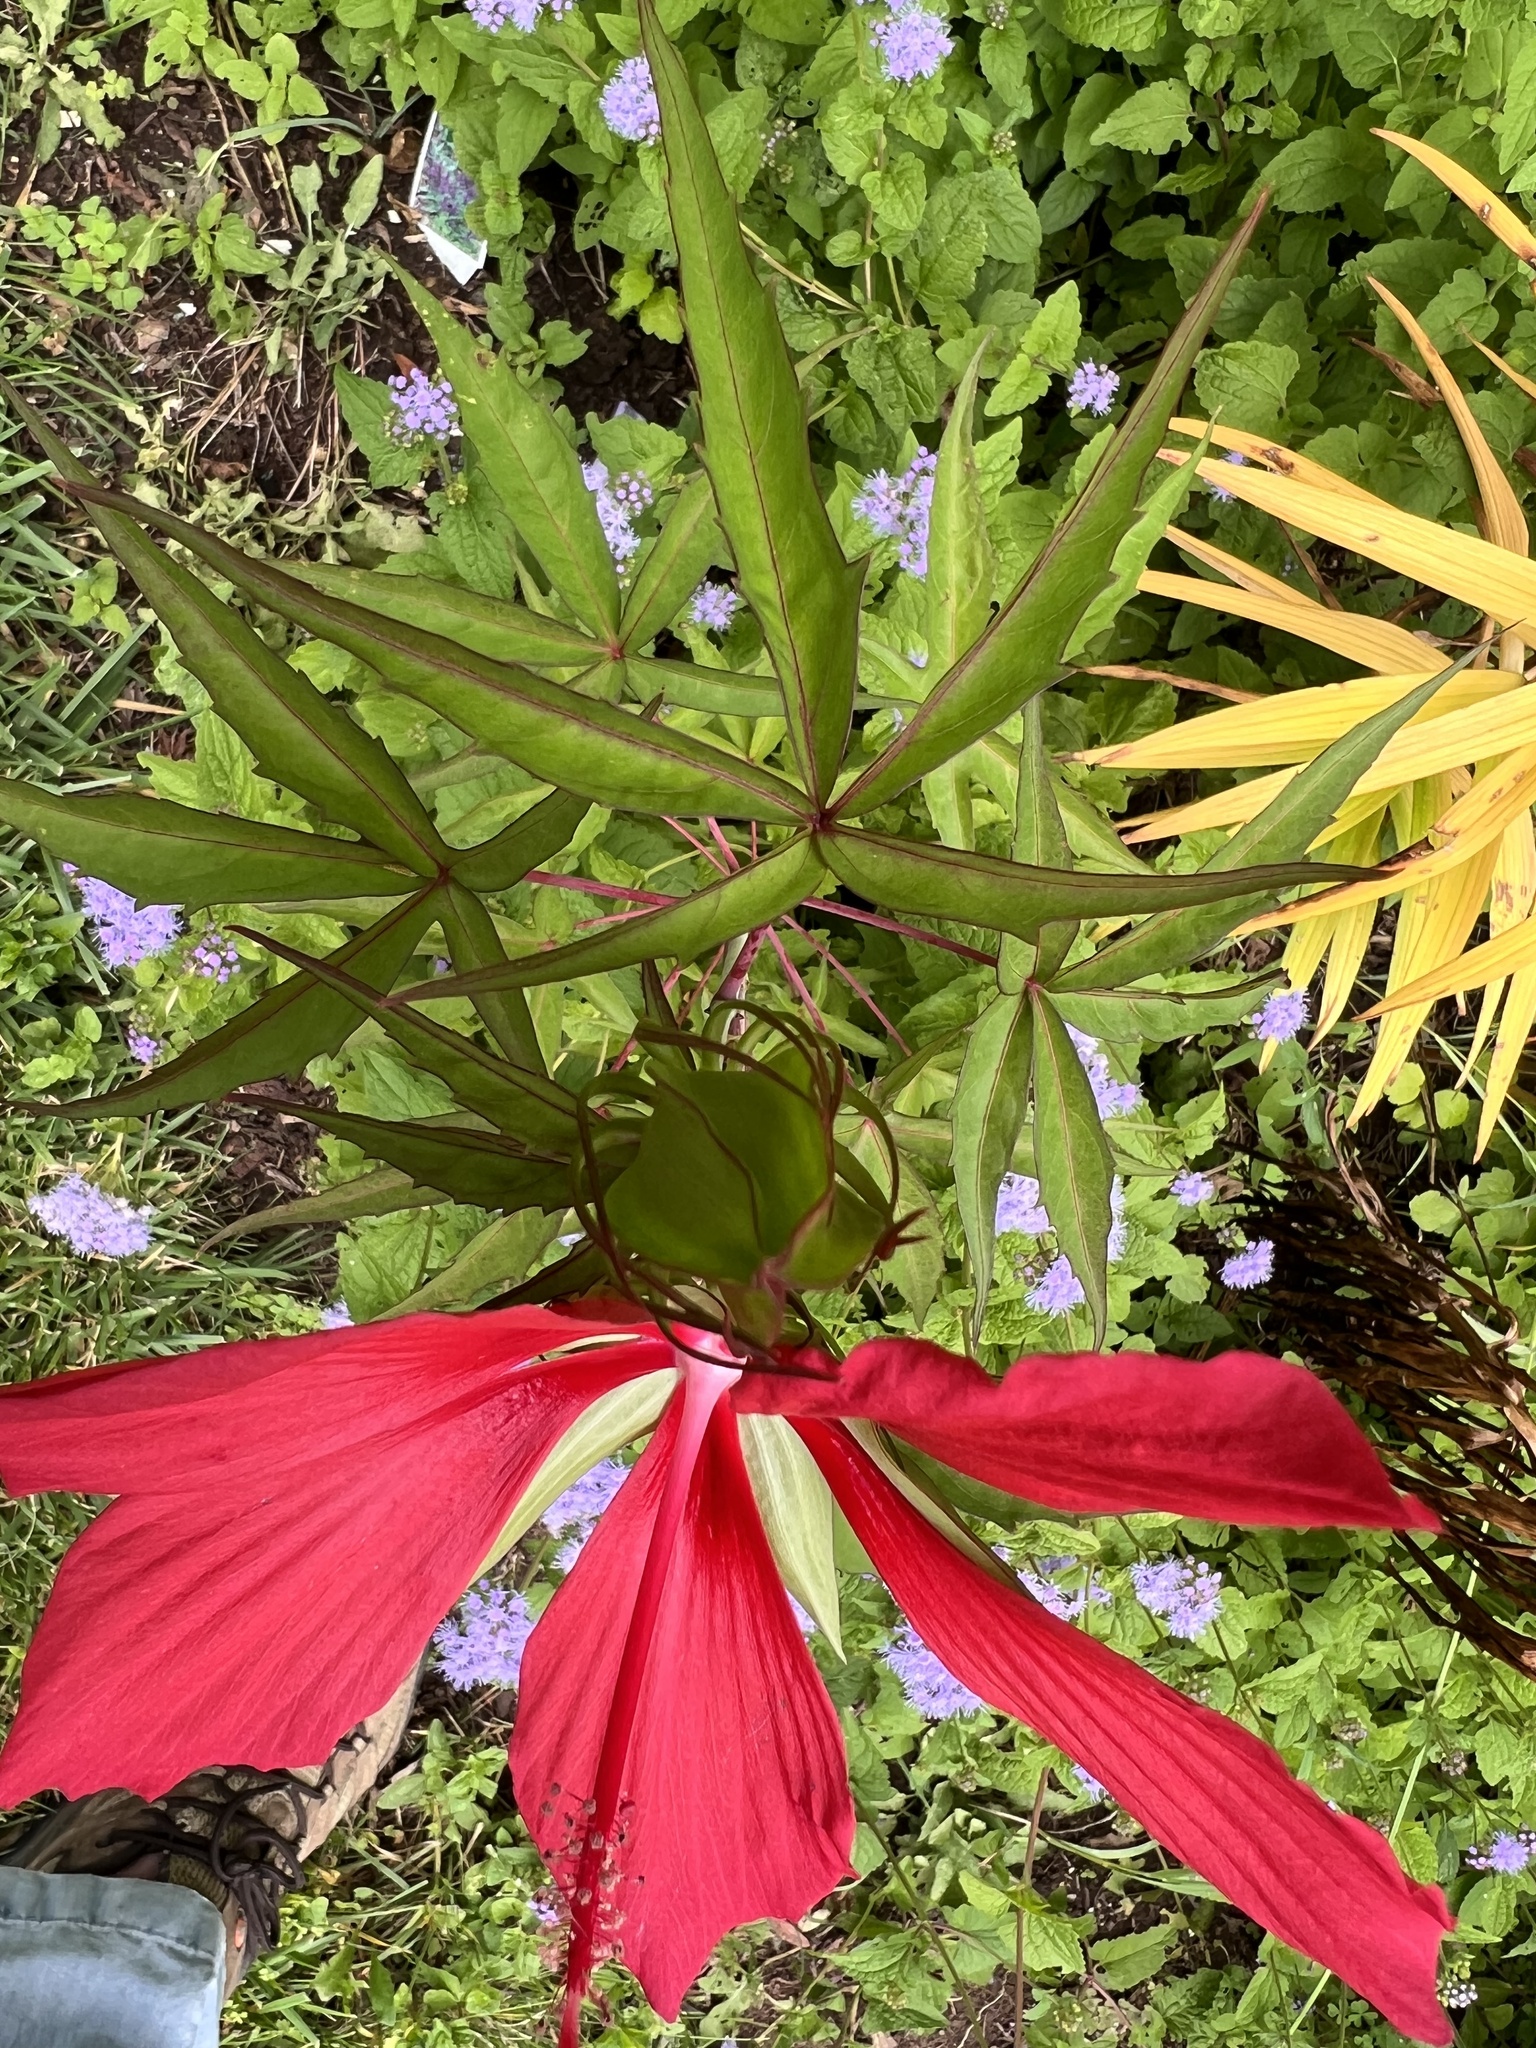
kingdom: Plantae
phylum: Tracheophyta
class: Magnoliopsida
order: Malvales
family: Malvaceae
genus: Hibiscus
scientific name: Hibiscus coccineus
